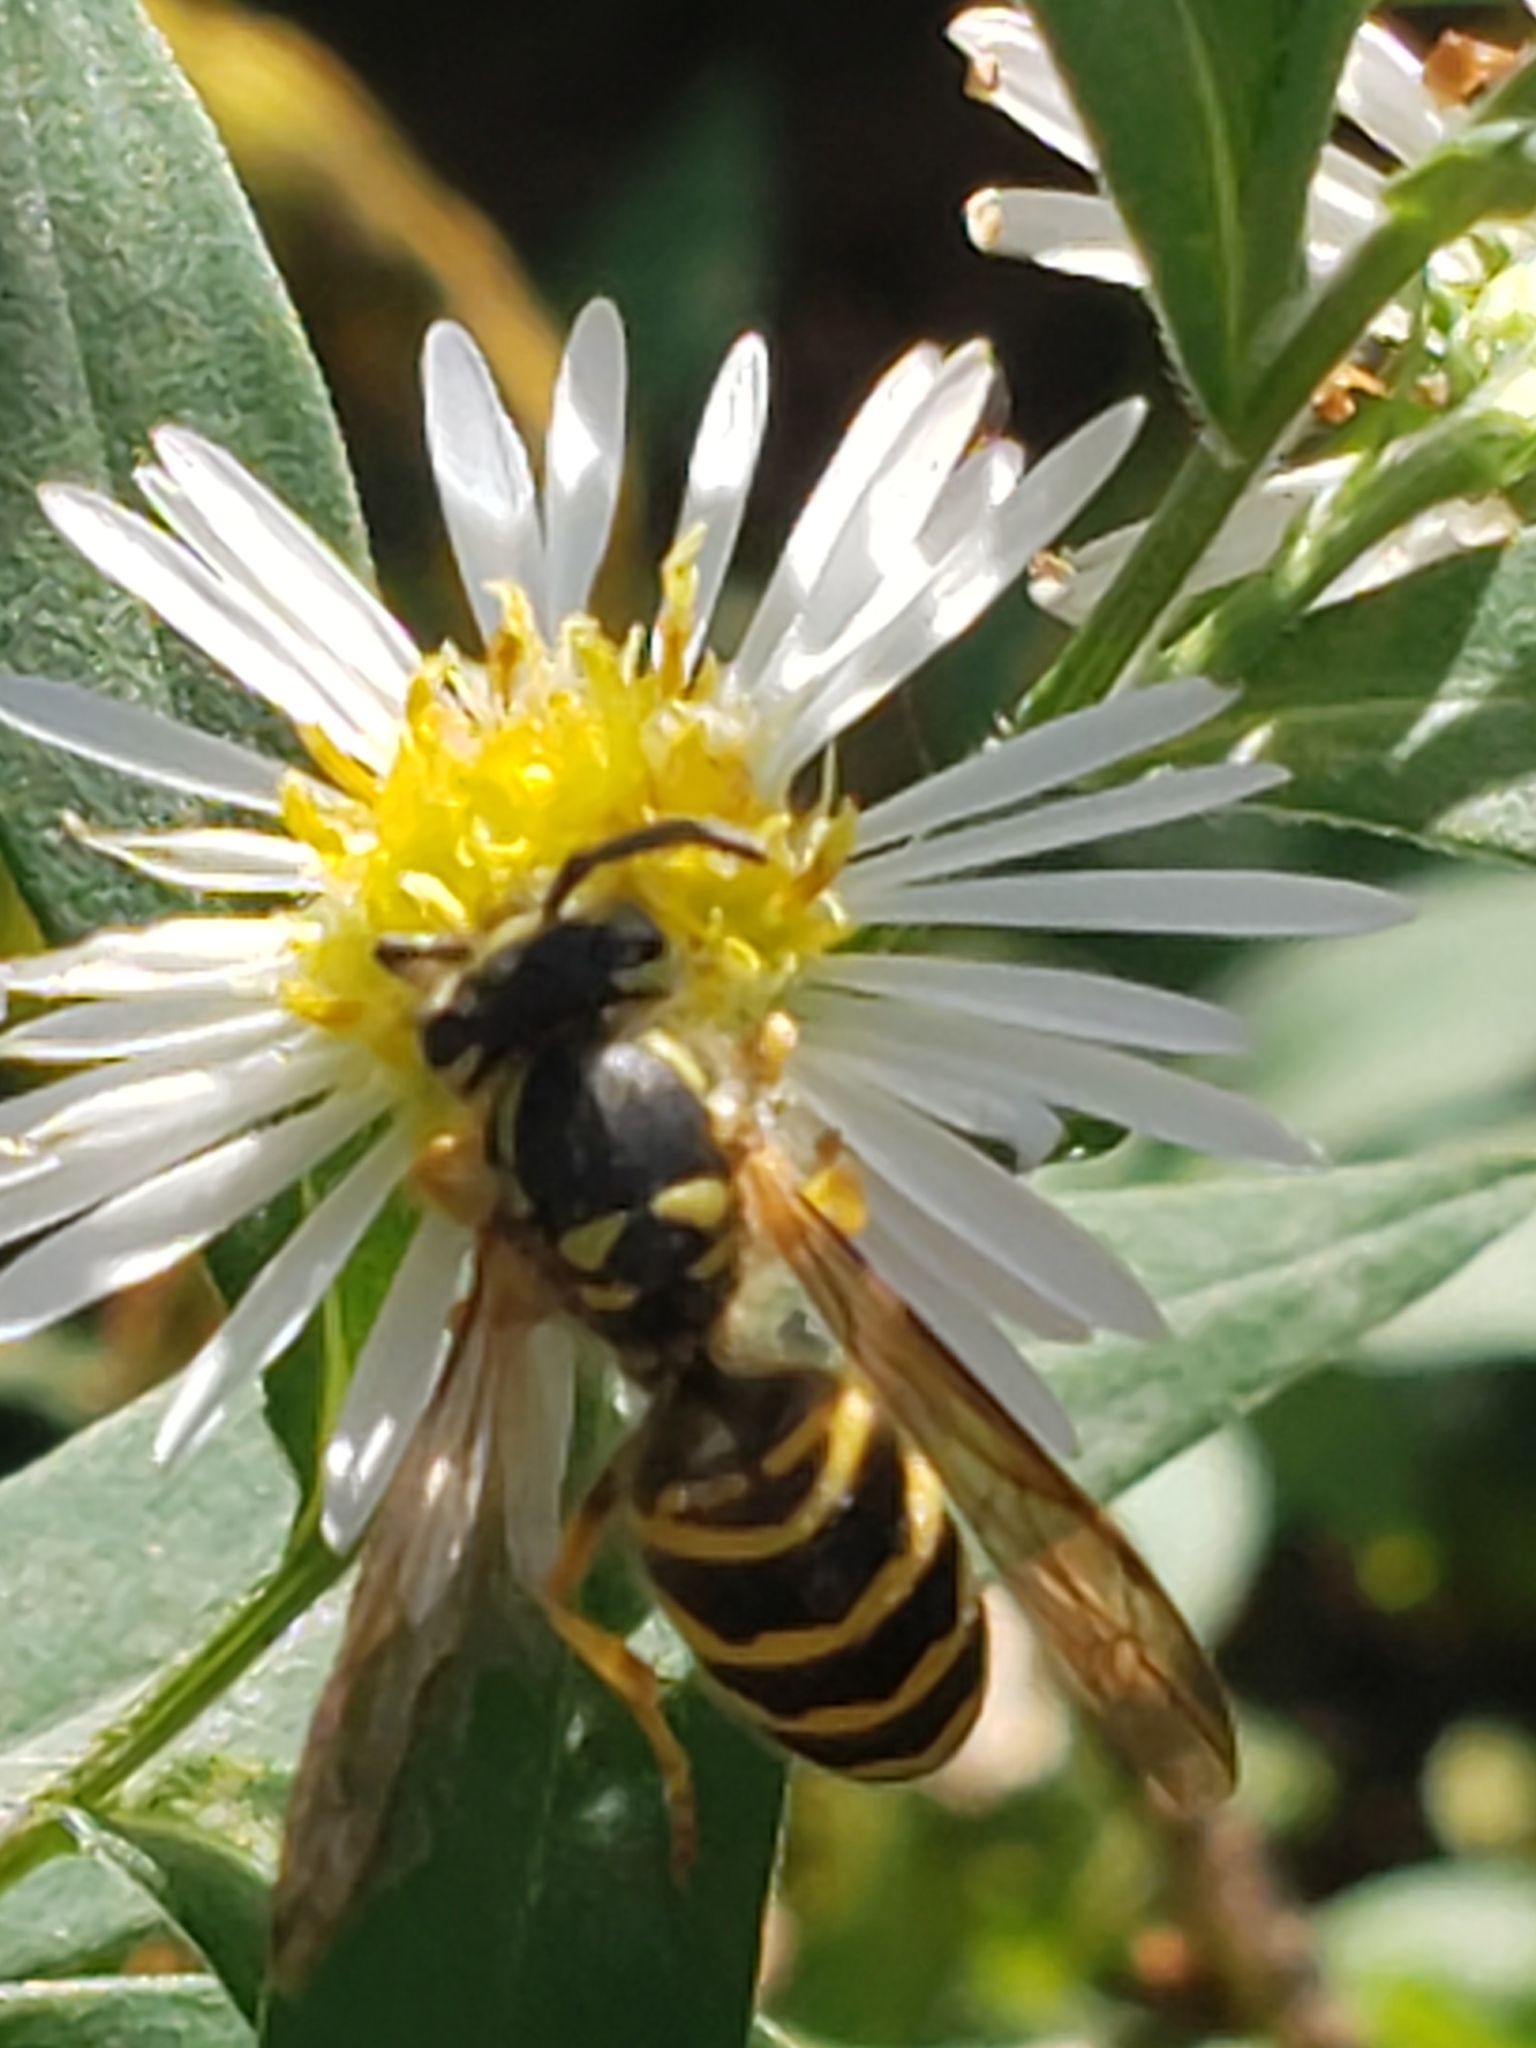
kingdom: Animalia
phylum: Arthropoda
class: Insecta
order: Hymenoptera
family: Vespidae
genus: Vespula
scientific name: Vespula maculifrons
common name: Eastern yellowjacket
